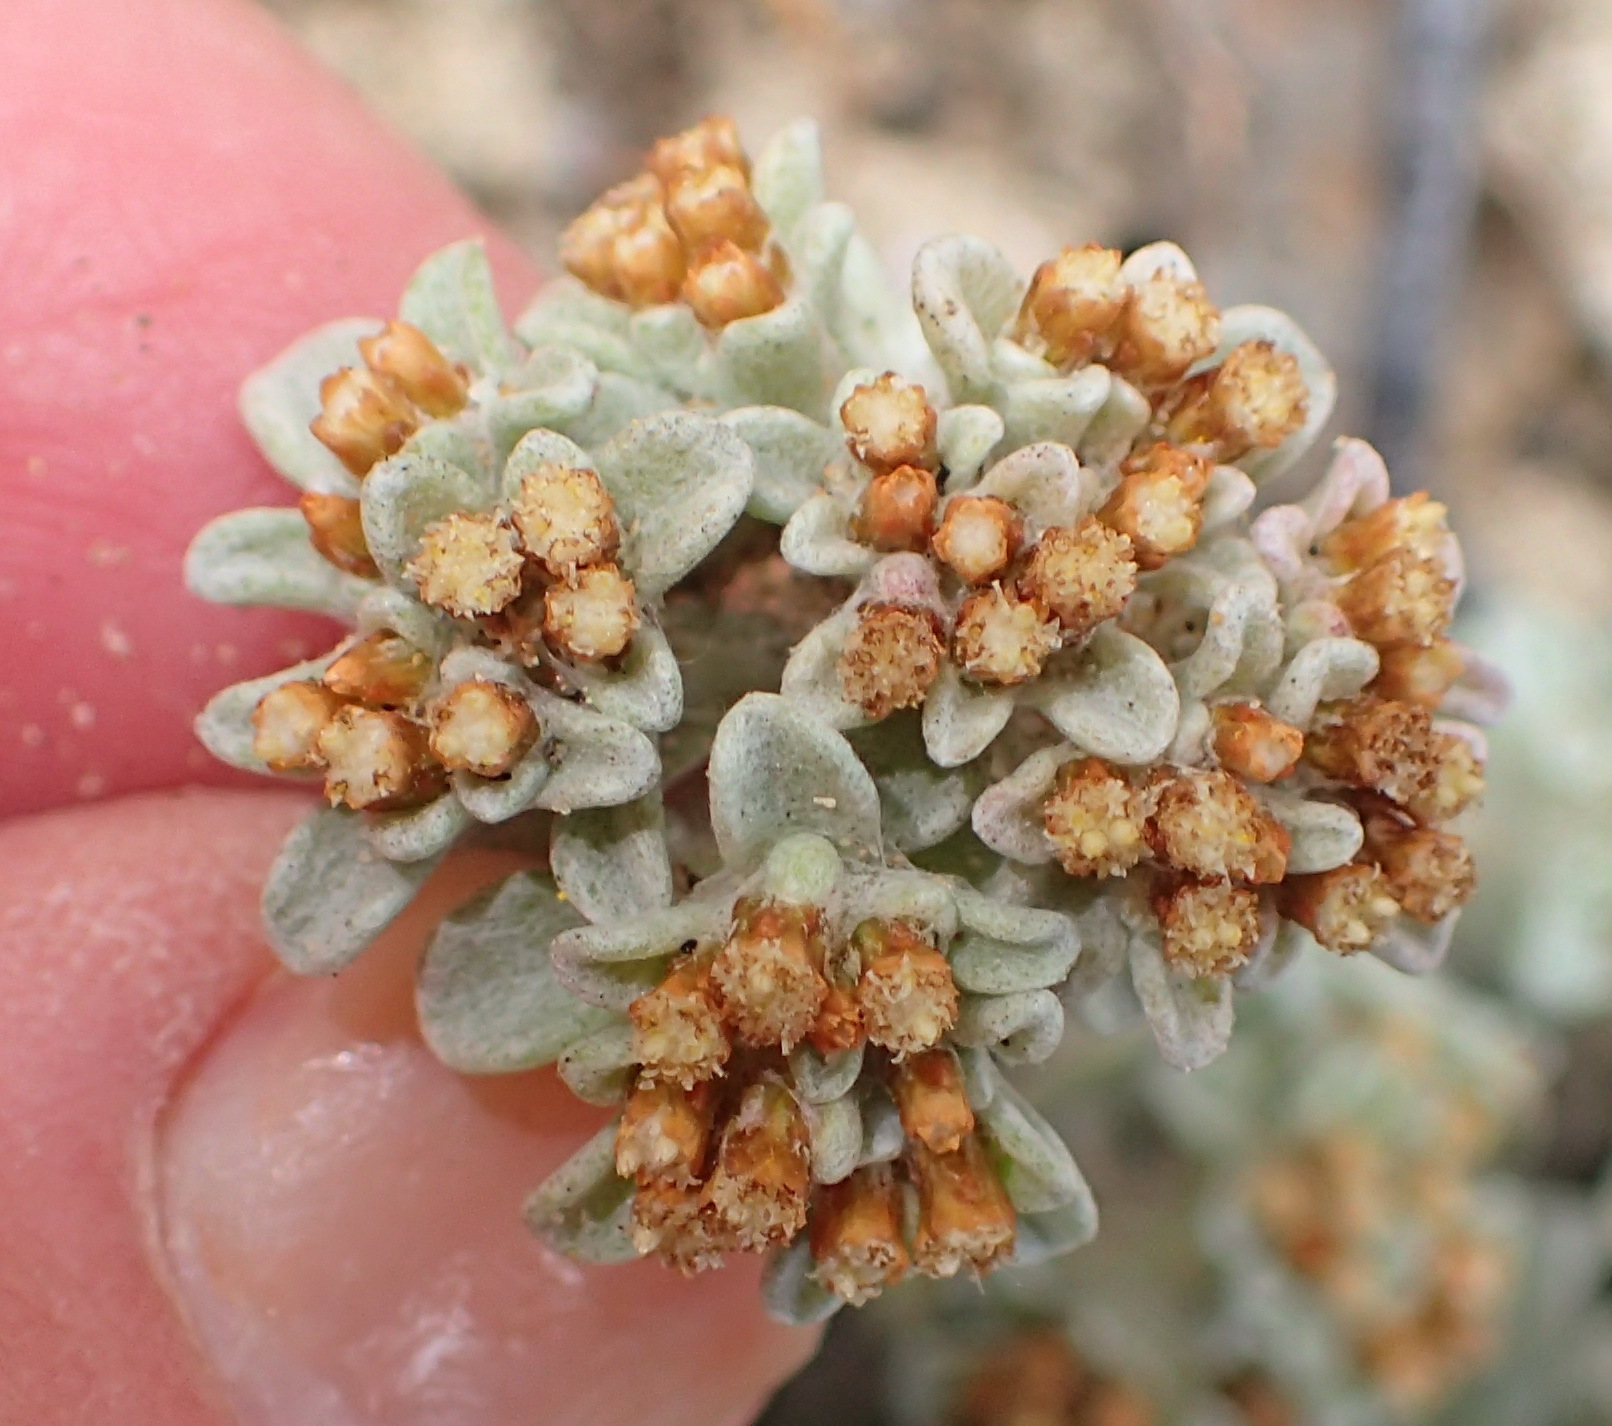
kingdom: Plantae
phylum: Tracheophyta
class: Magnoliopsida
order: Asterales
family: Asteraceae
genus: Helichrysum
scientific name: Helichrysum litorale
